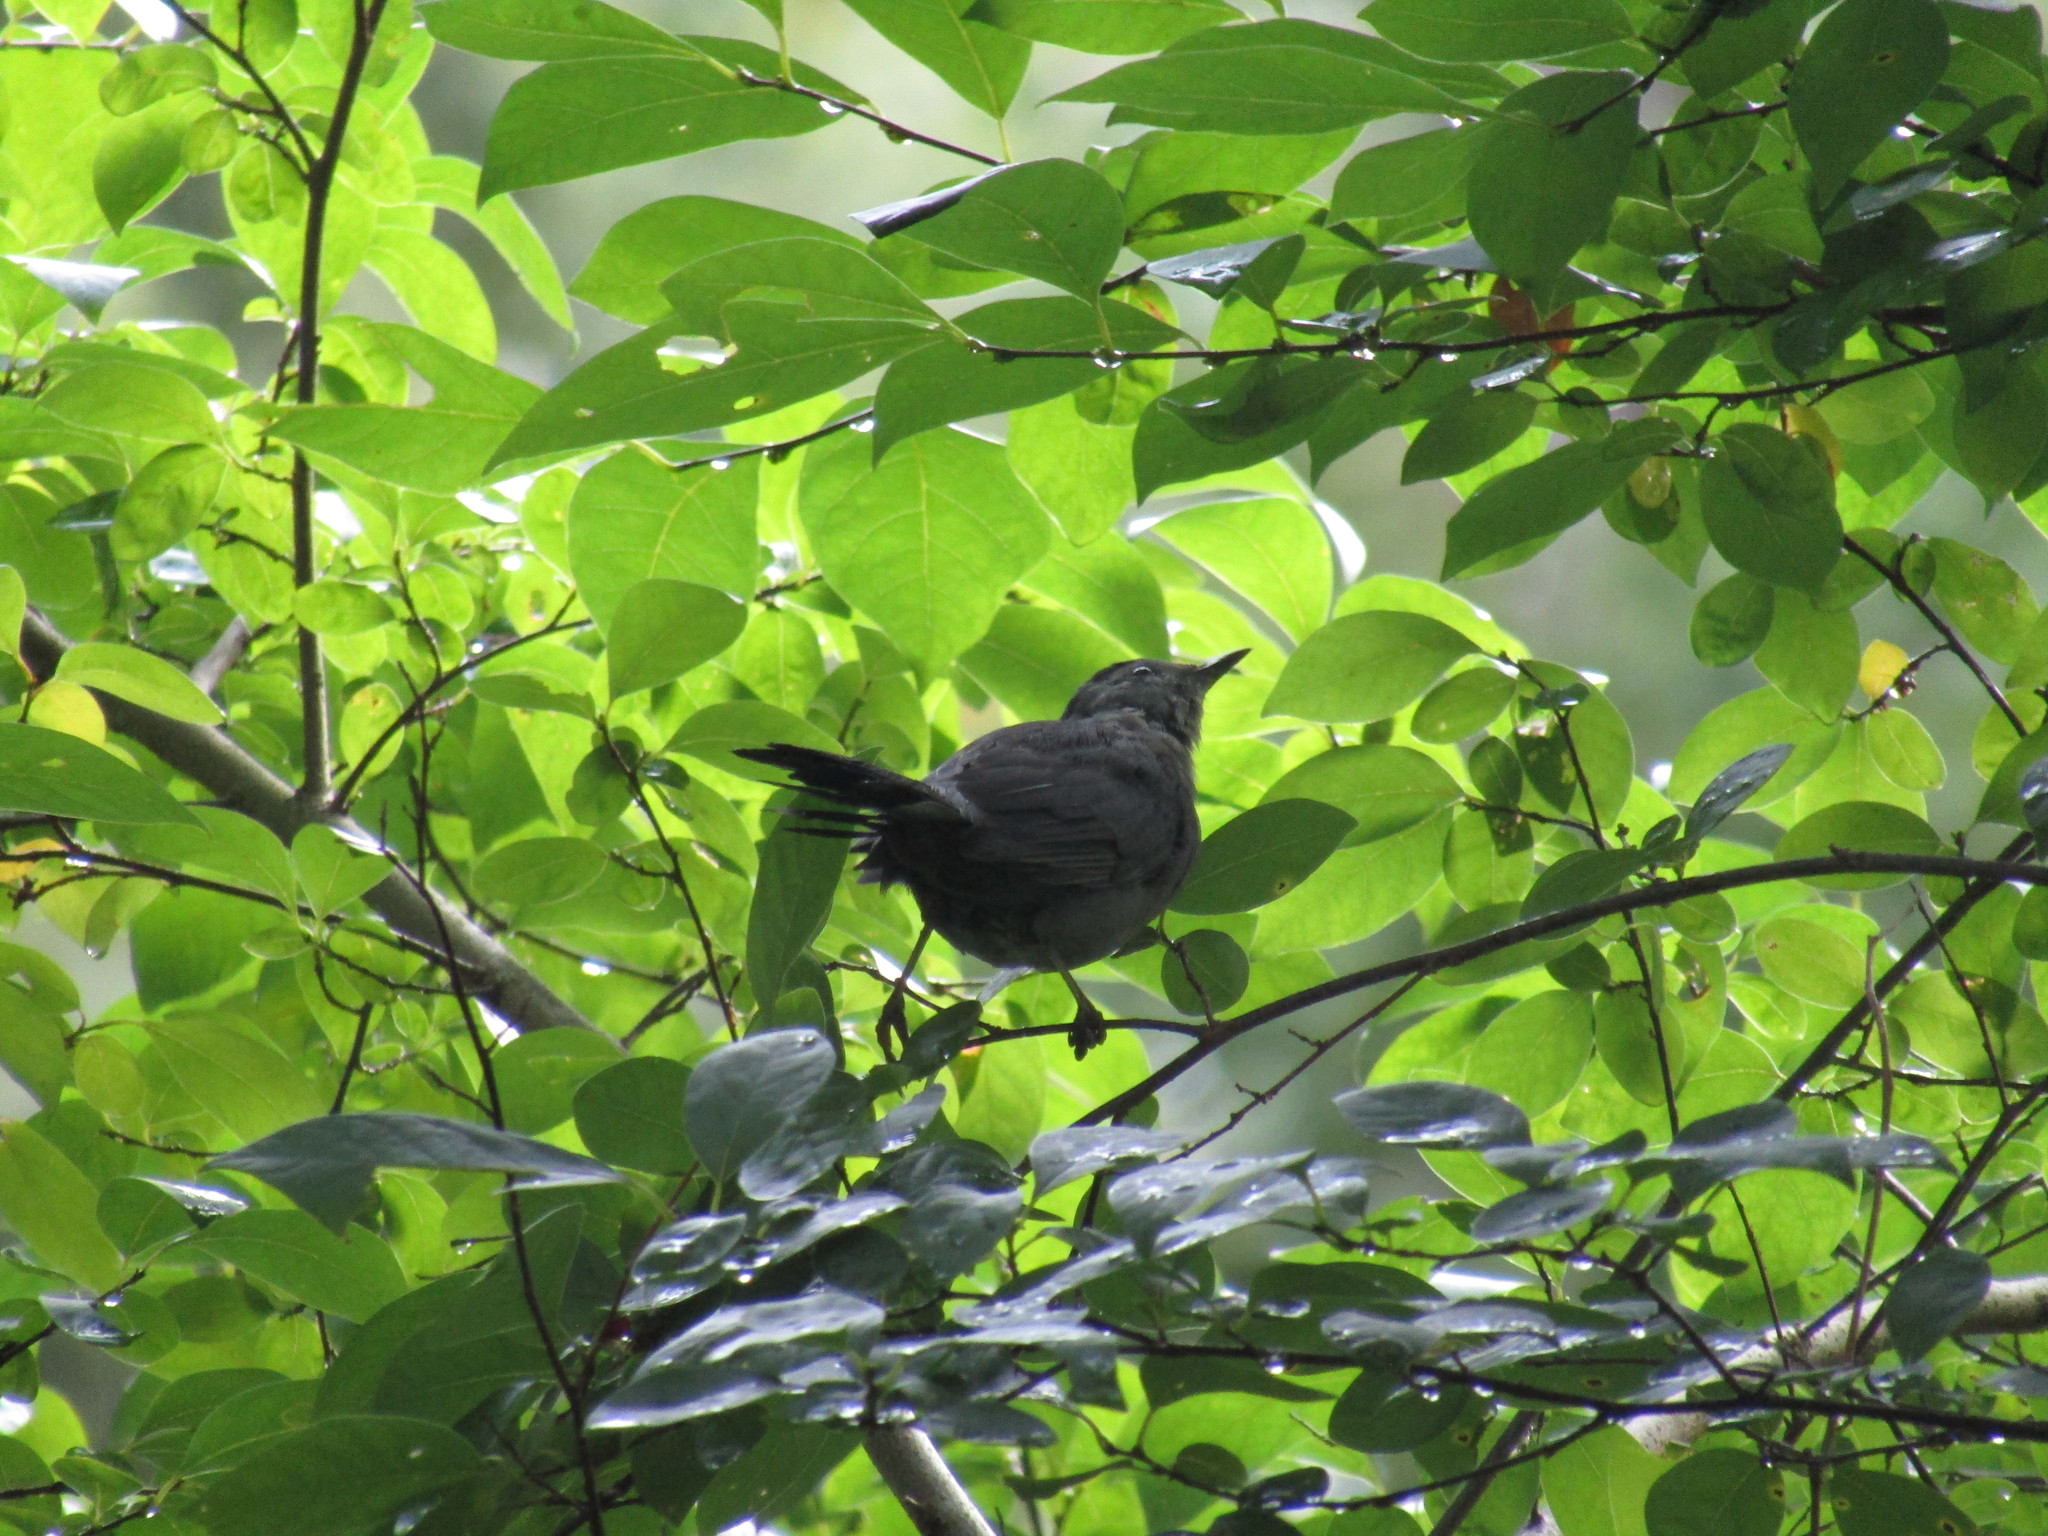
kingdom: Animalia
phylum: Chordata
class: Aves
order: Passeriformes
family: Mimidae
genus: Dumetella
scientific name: Dumetella carolinensis
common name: Gray catbird
